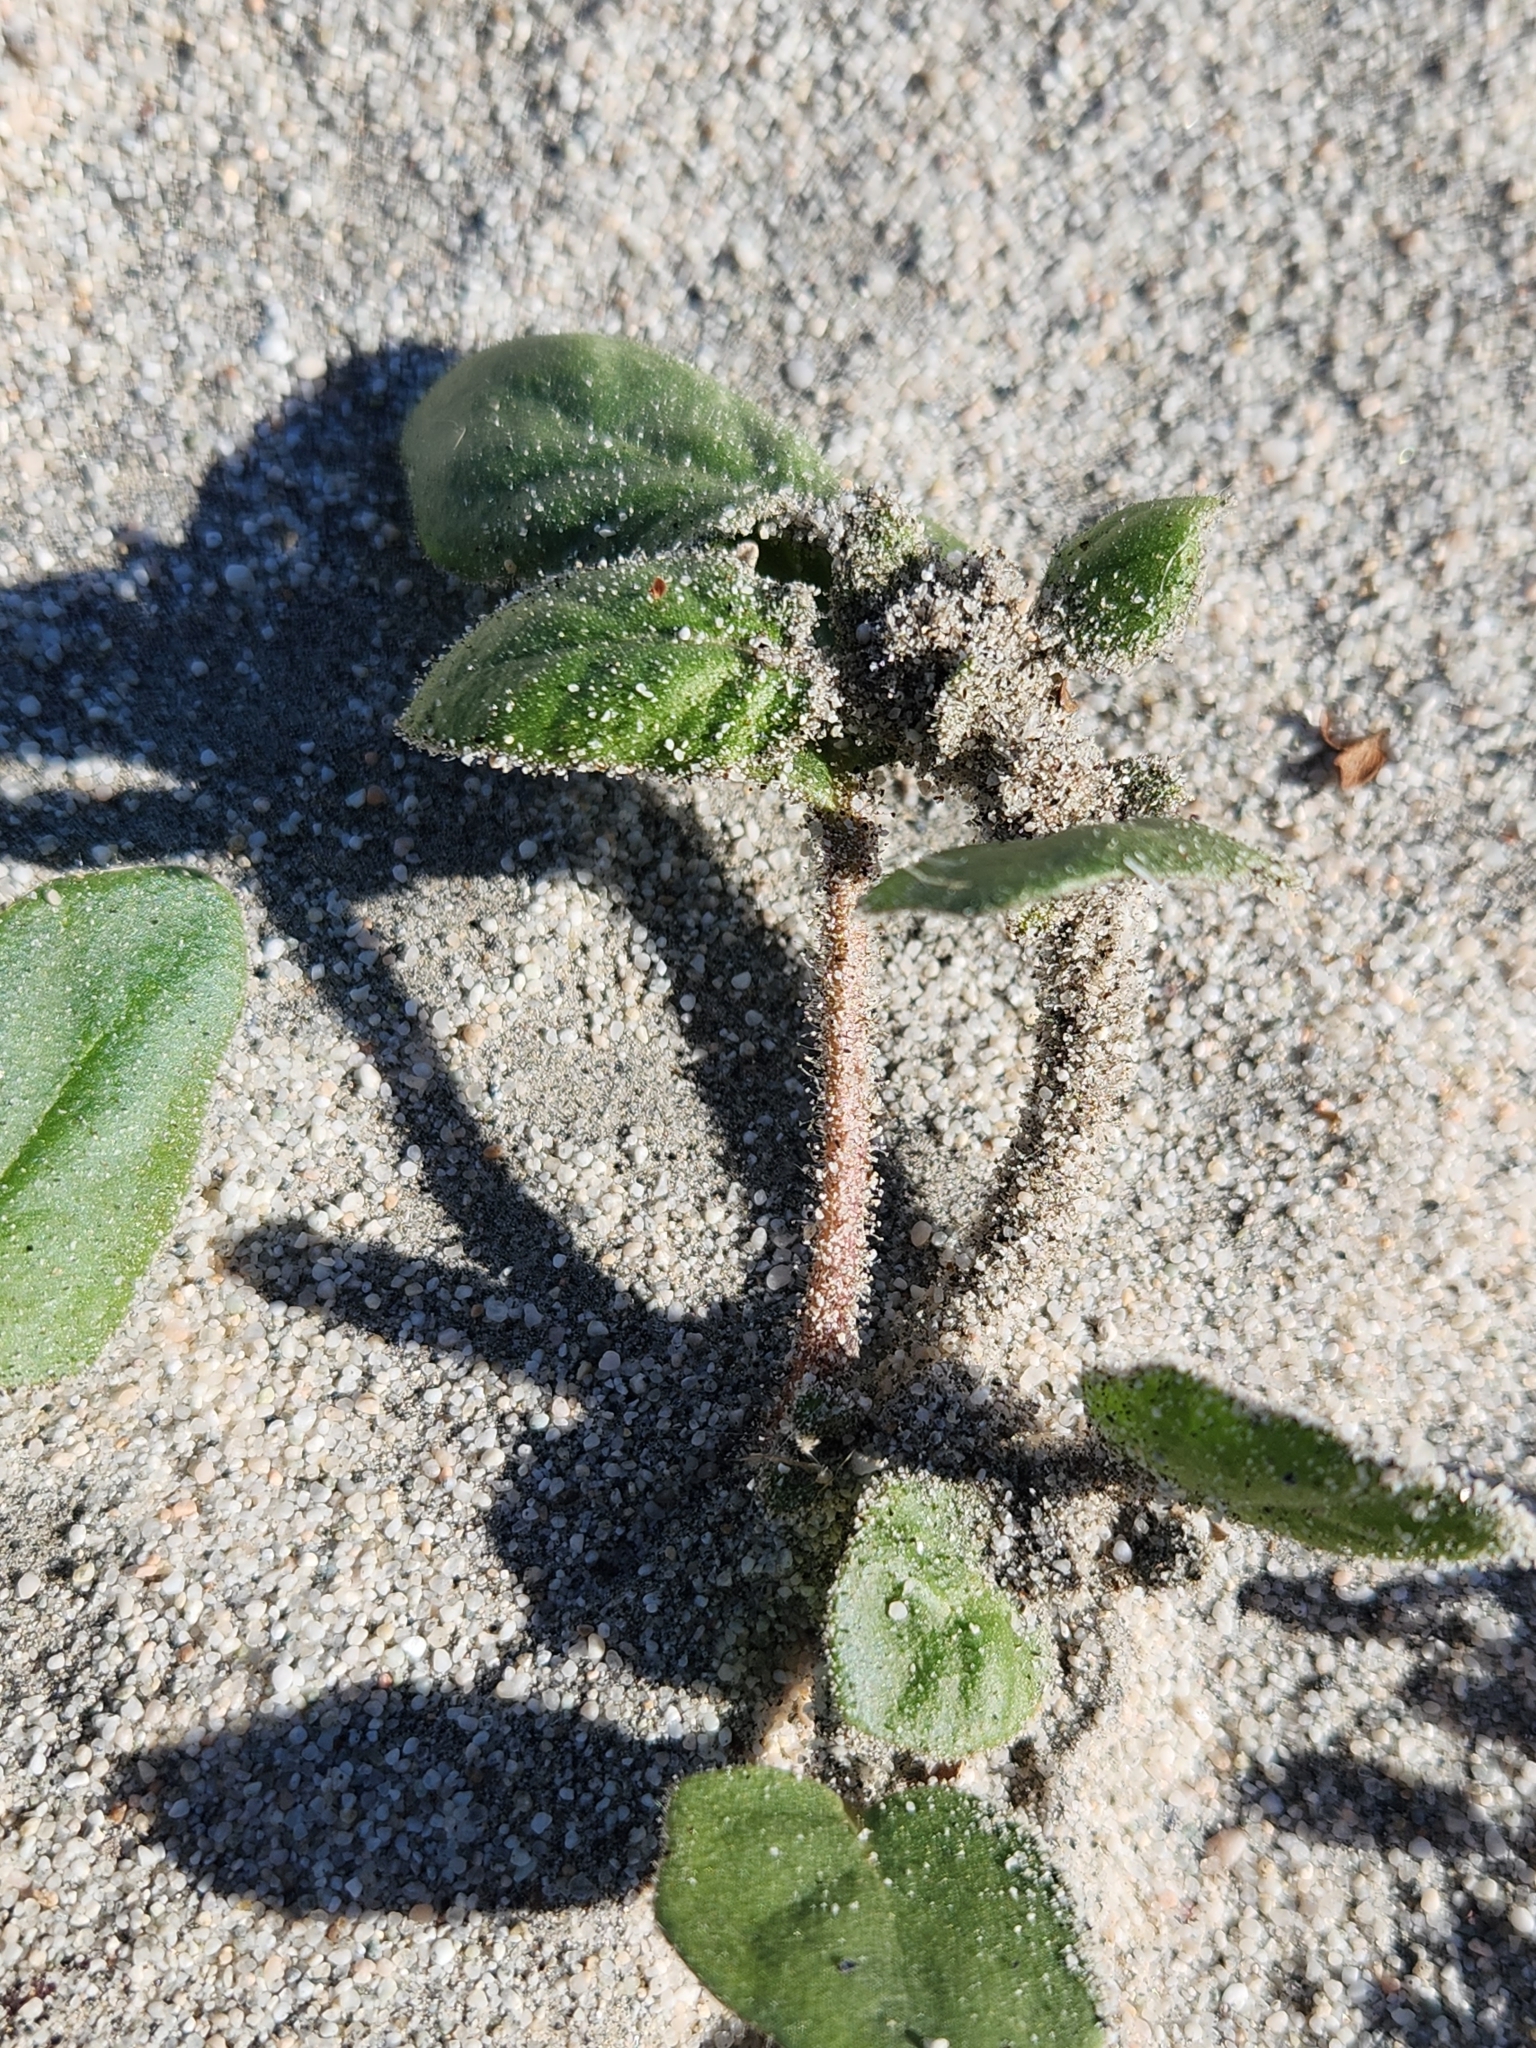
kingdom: Plantae
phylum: Tracheophyta
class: Magnoliopsida
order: Caryophyllales
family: Nyctaginaceae
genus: Abronia
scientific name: Abronia villosa
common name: Desert sand-verbena
